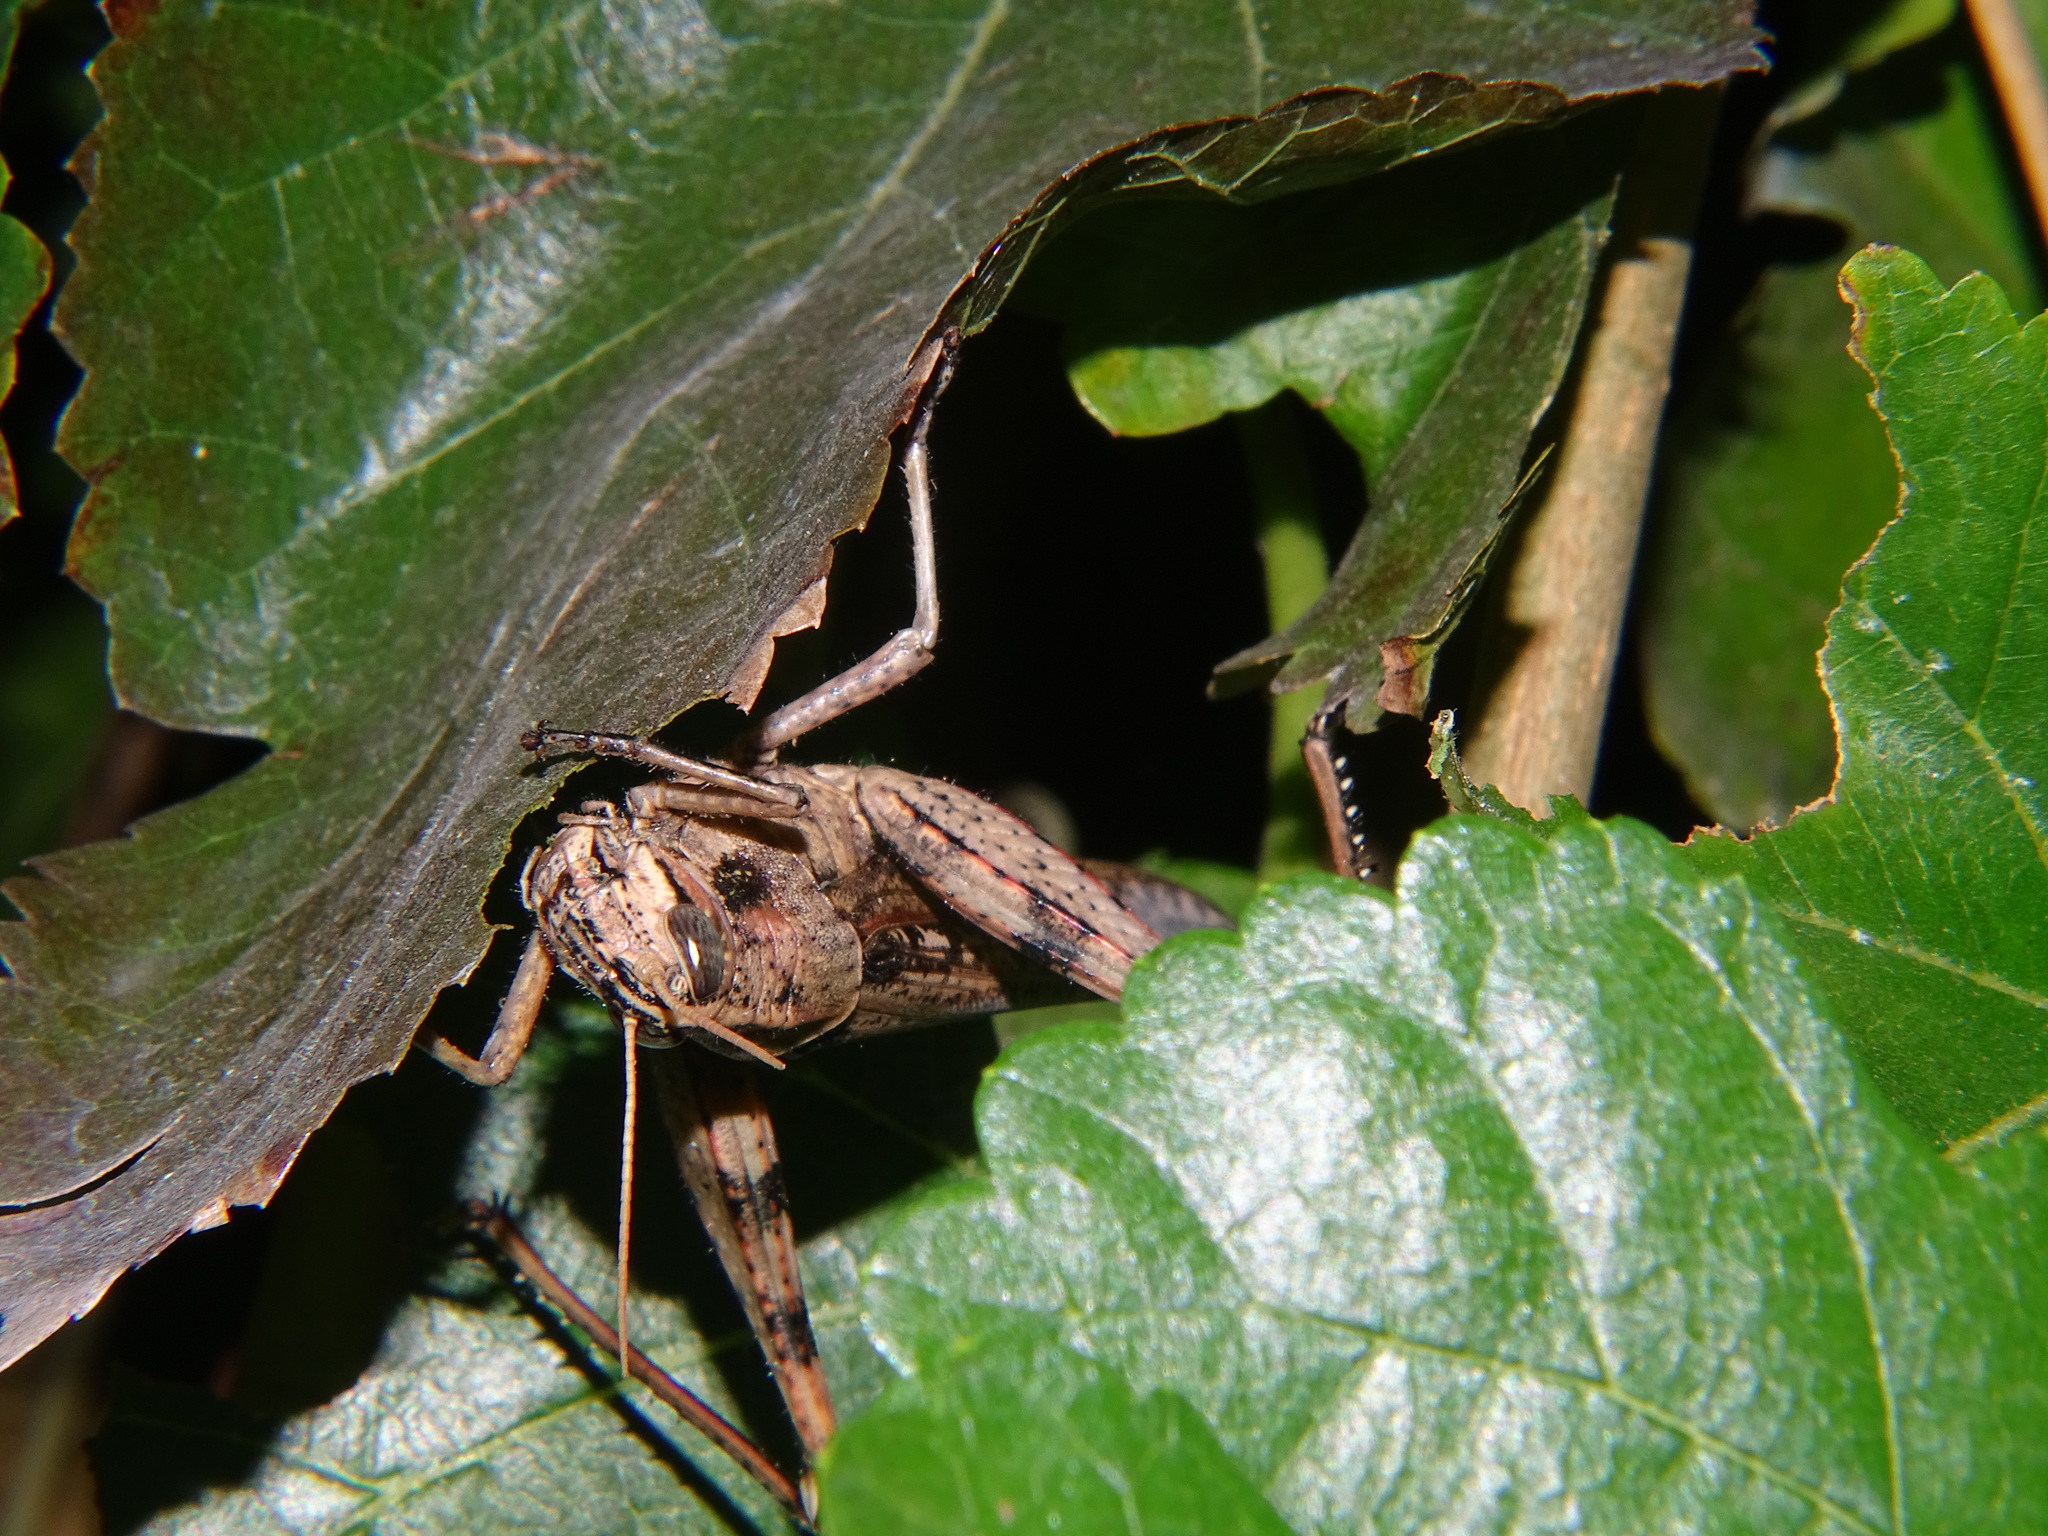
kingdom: Animalia
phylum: Arthropoda
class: Insecta
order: Orthoptera
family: Acrididae
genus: Schistocerca
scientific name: Schistocerca nitens
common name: Vagrant grasshopper
